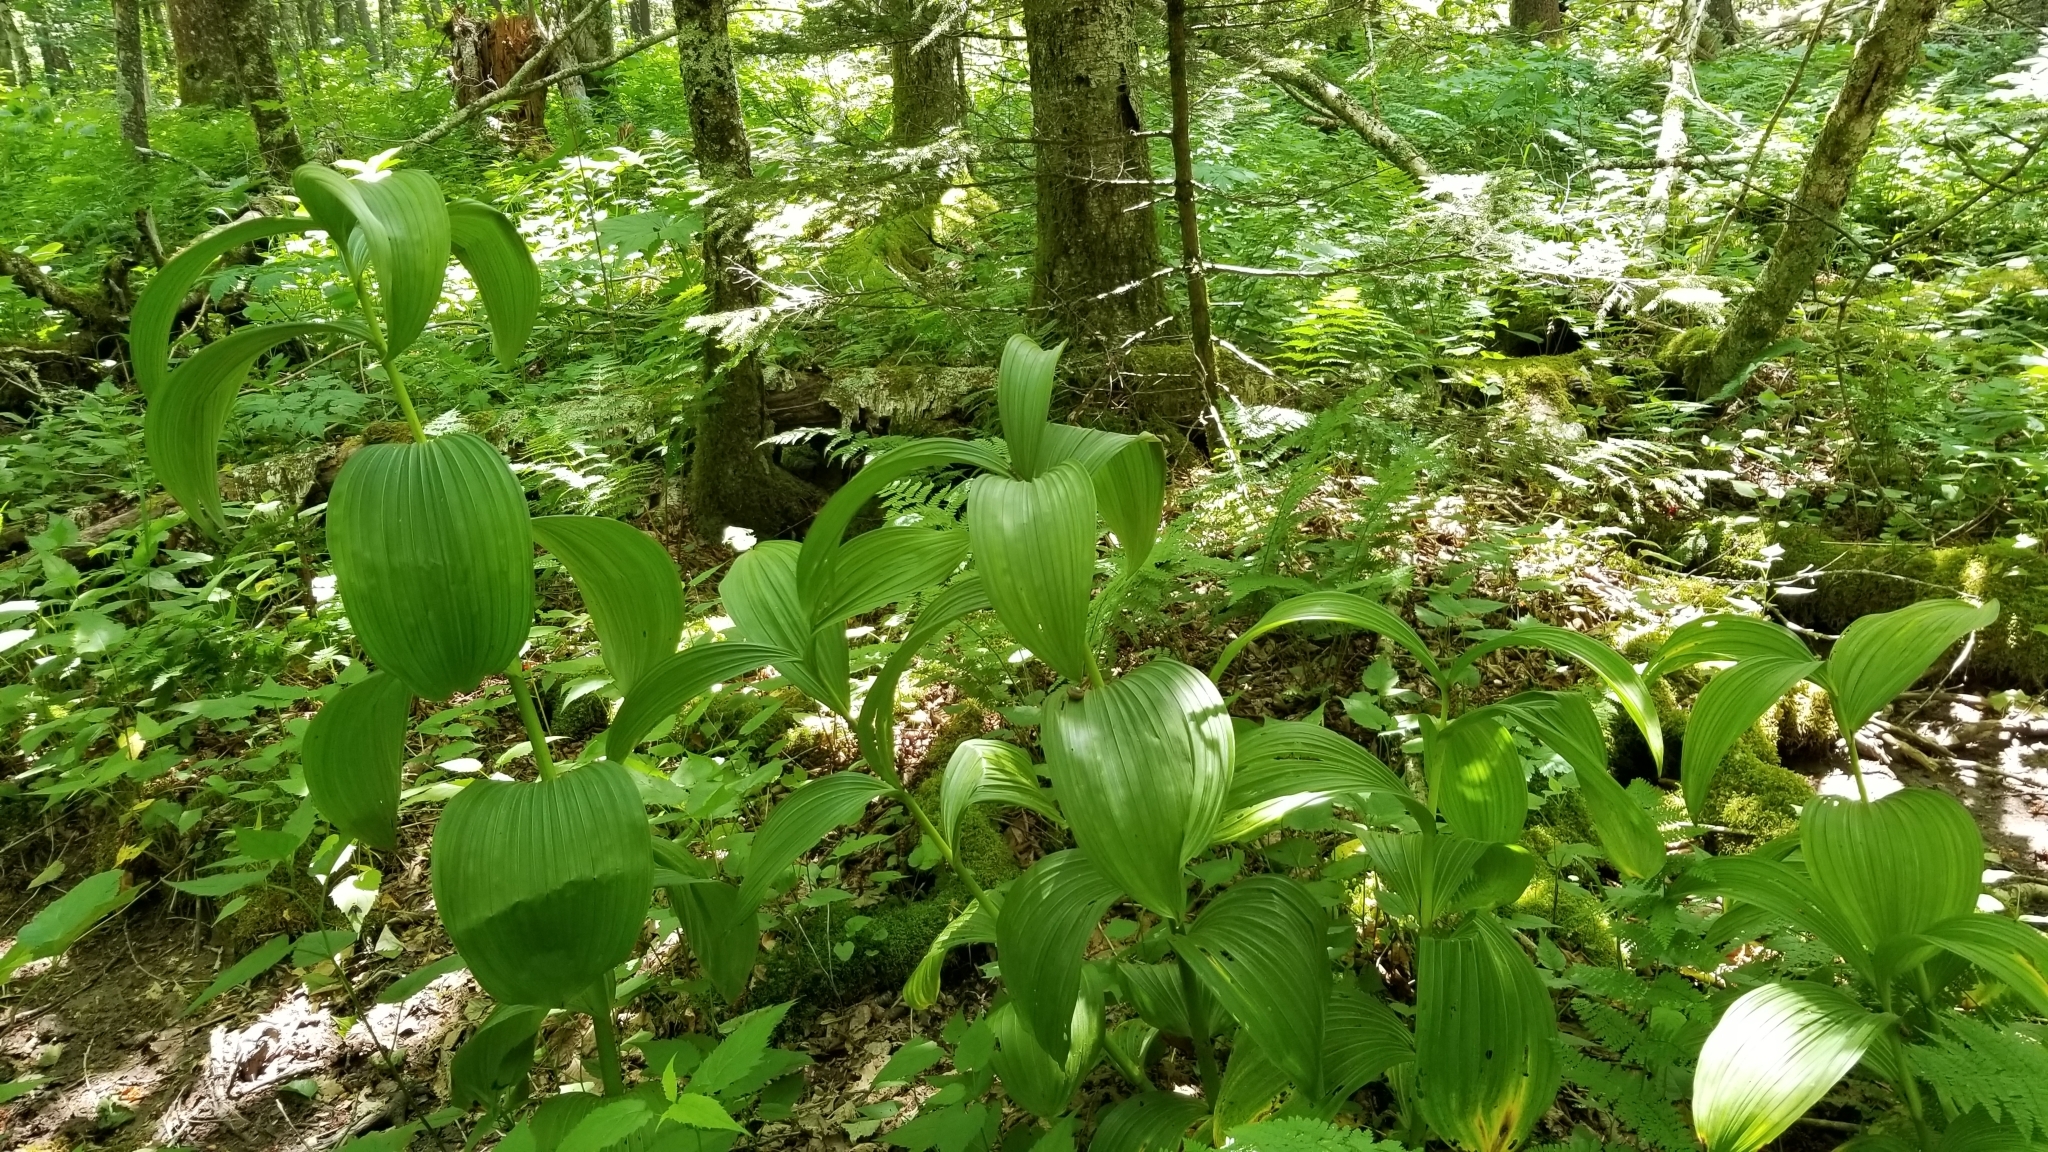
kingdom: Plantae
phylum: Tracheophyta
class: Liliopsida
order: Liliales
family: Melanthiaceae
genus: Veratrum
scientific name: Veratrum viride
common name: American false hellebore
